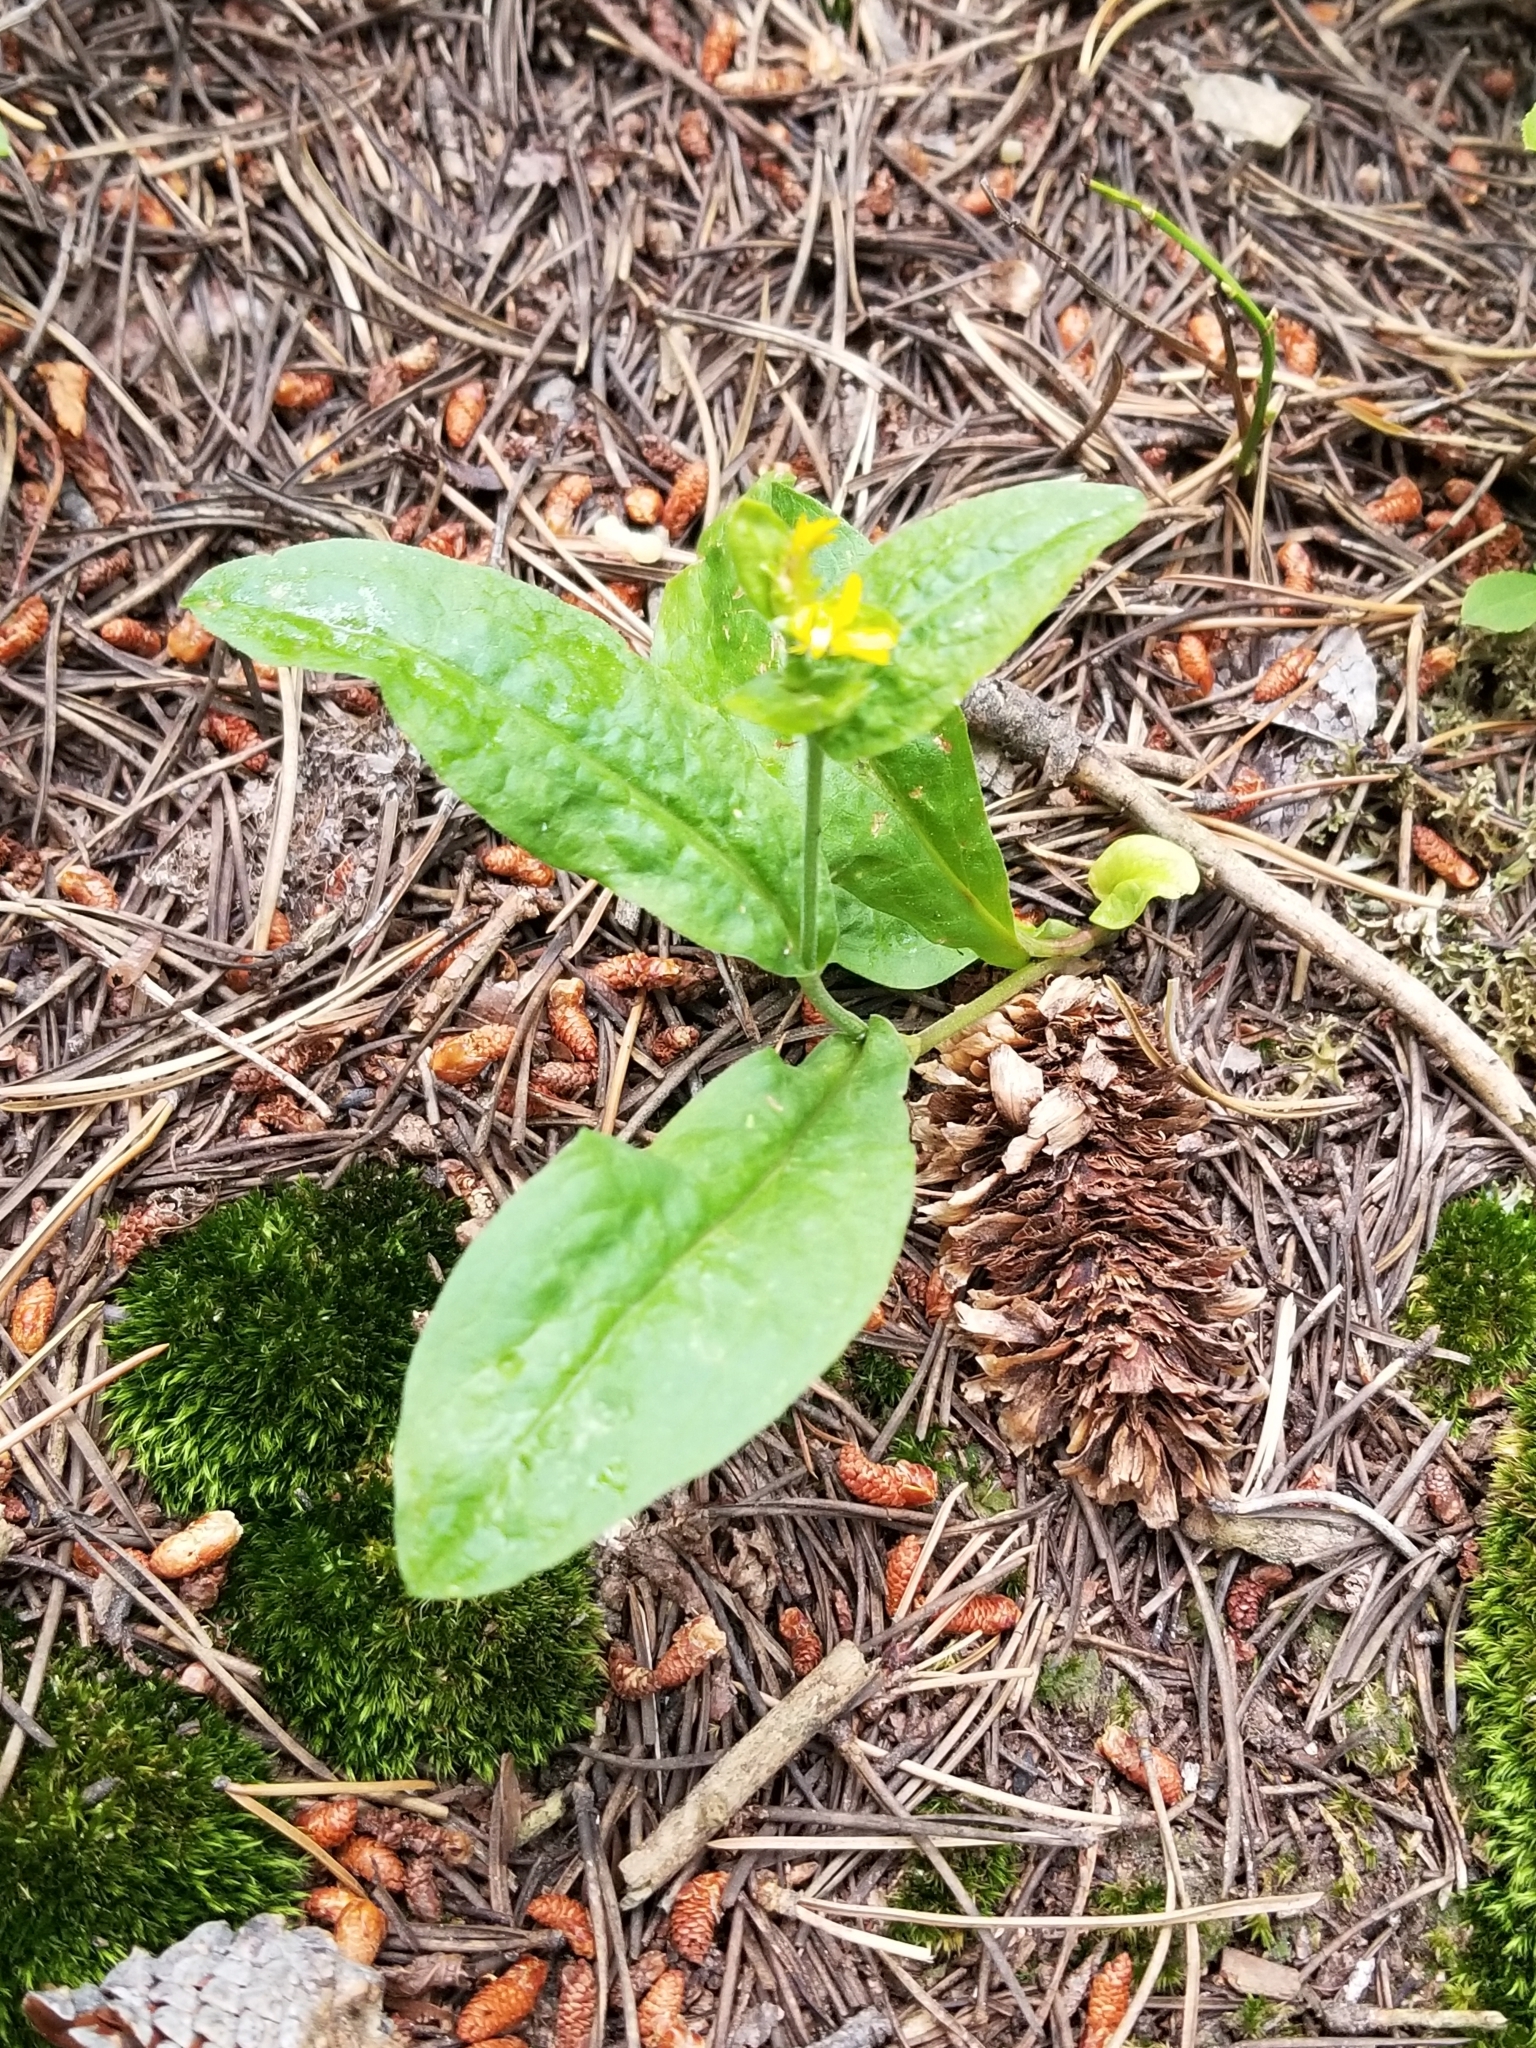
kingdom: Plantae
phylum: Tracheophyta
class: Magnoliopsida
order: Asterales
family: Asteraceae
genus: Oreochrysum
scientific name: Oreochrysum parryi
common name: Parry's goldenweed
